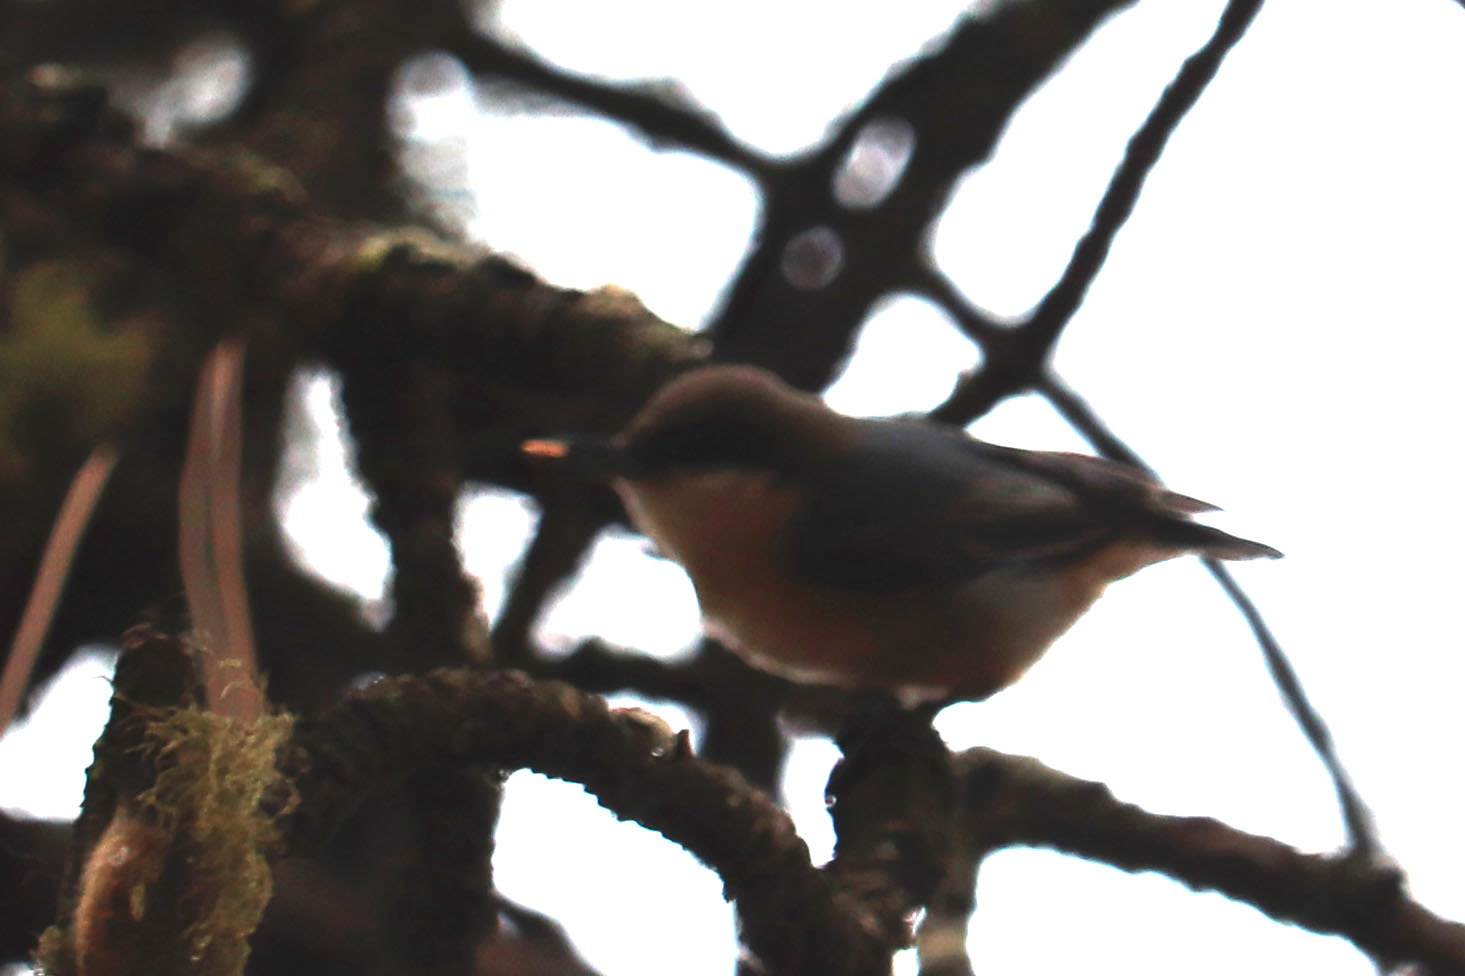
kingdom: Animalia
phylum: Chordata
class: Aves
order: Passeriformes
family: Sittidae
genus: Sitta
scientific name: Sitta pygmaea
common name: Pygmy nuthatch
